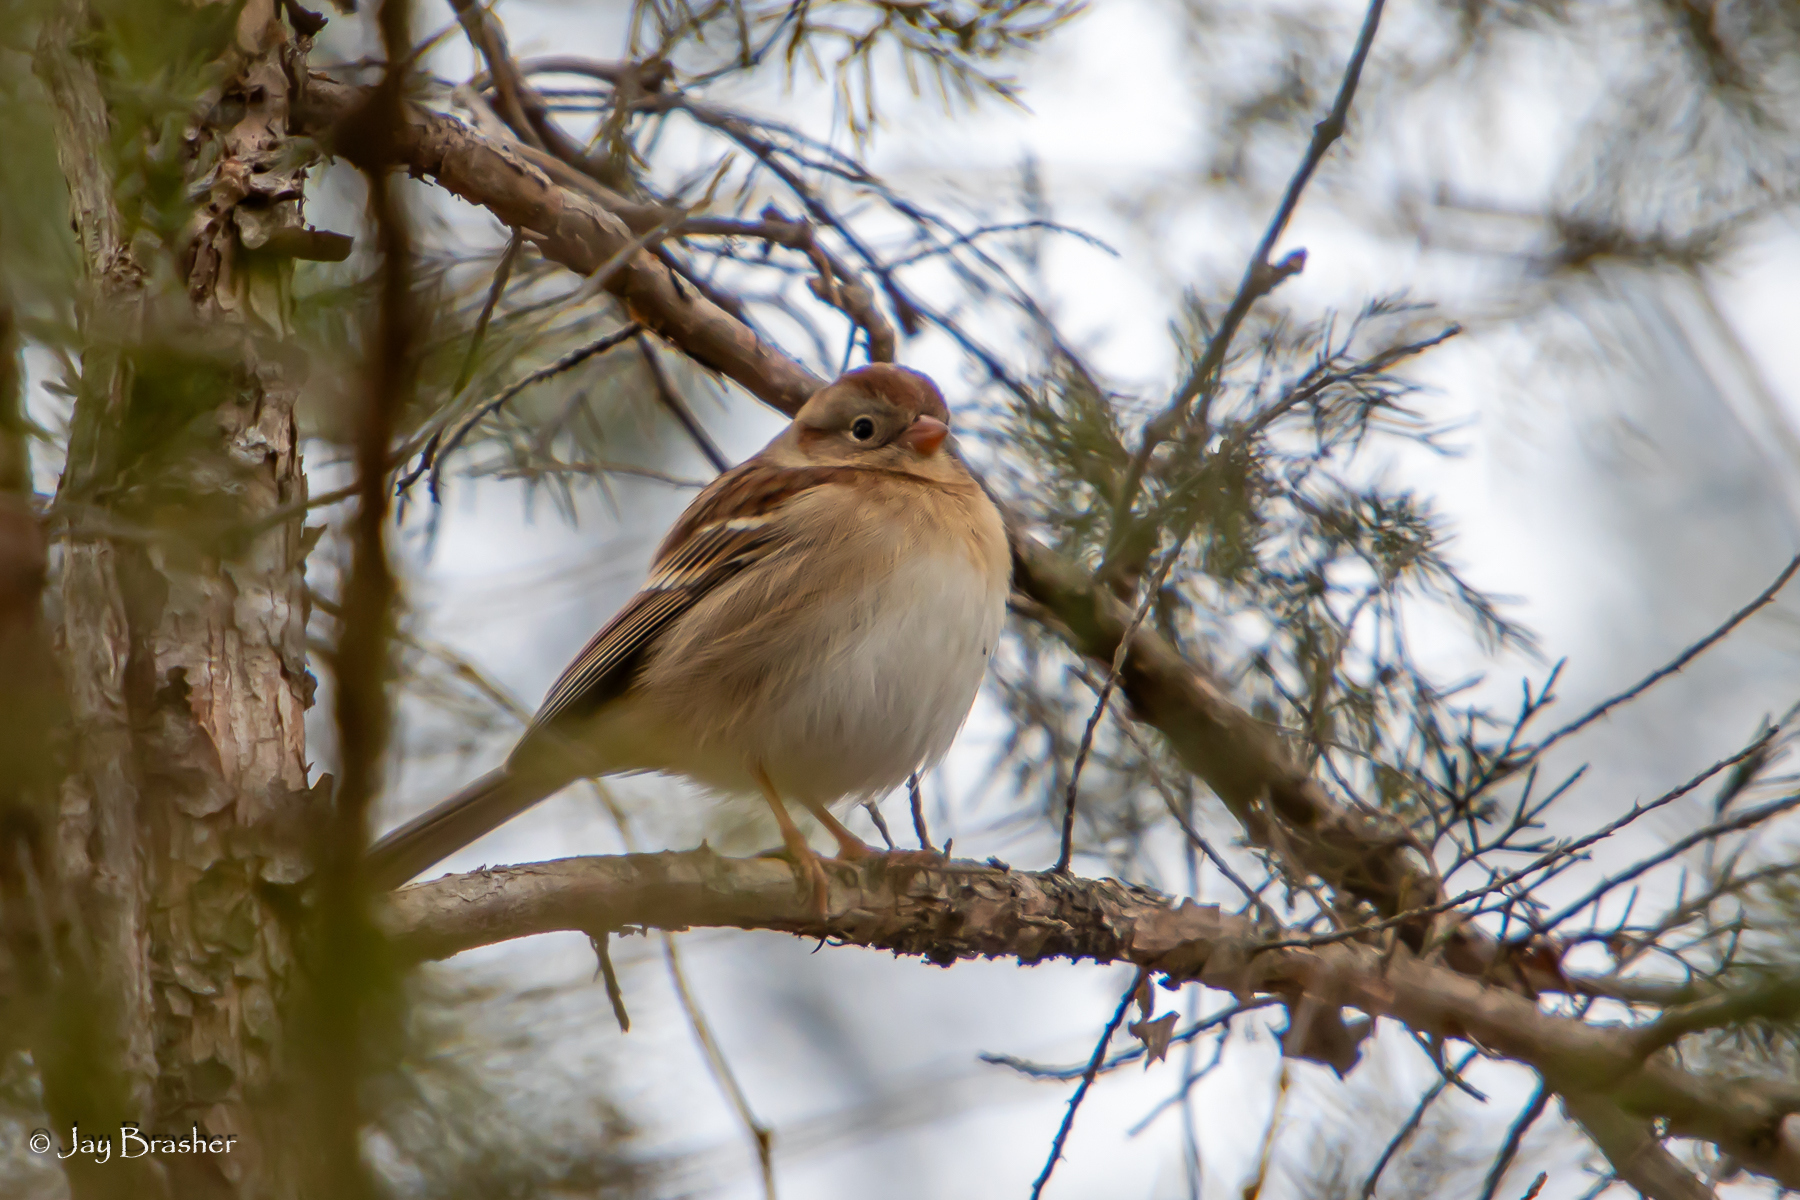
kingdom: Animalia
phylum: Chordata
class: Aves
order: Passeriformes
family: Passerellidae
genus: Spizella
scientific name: Spizella pusilla
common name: Field sparrow
